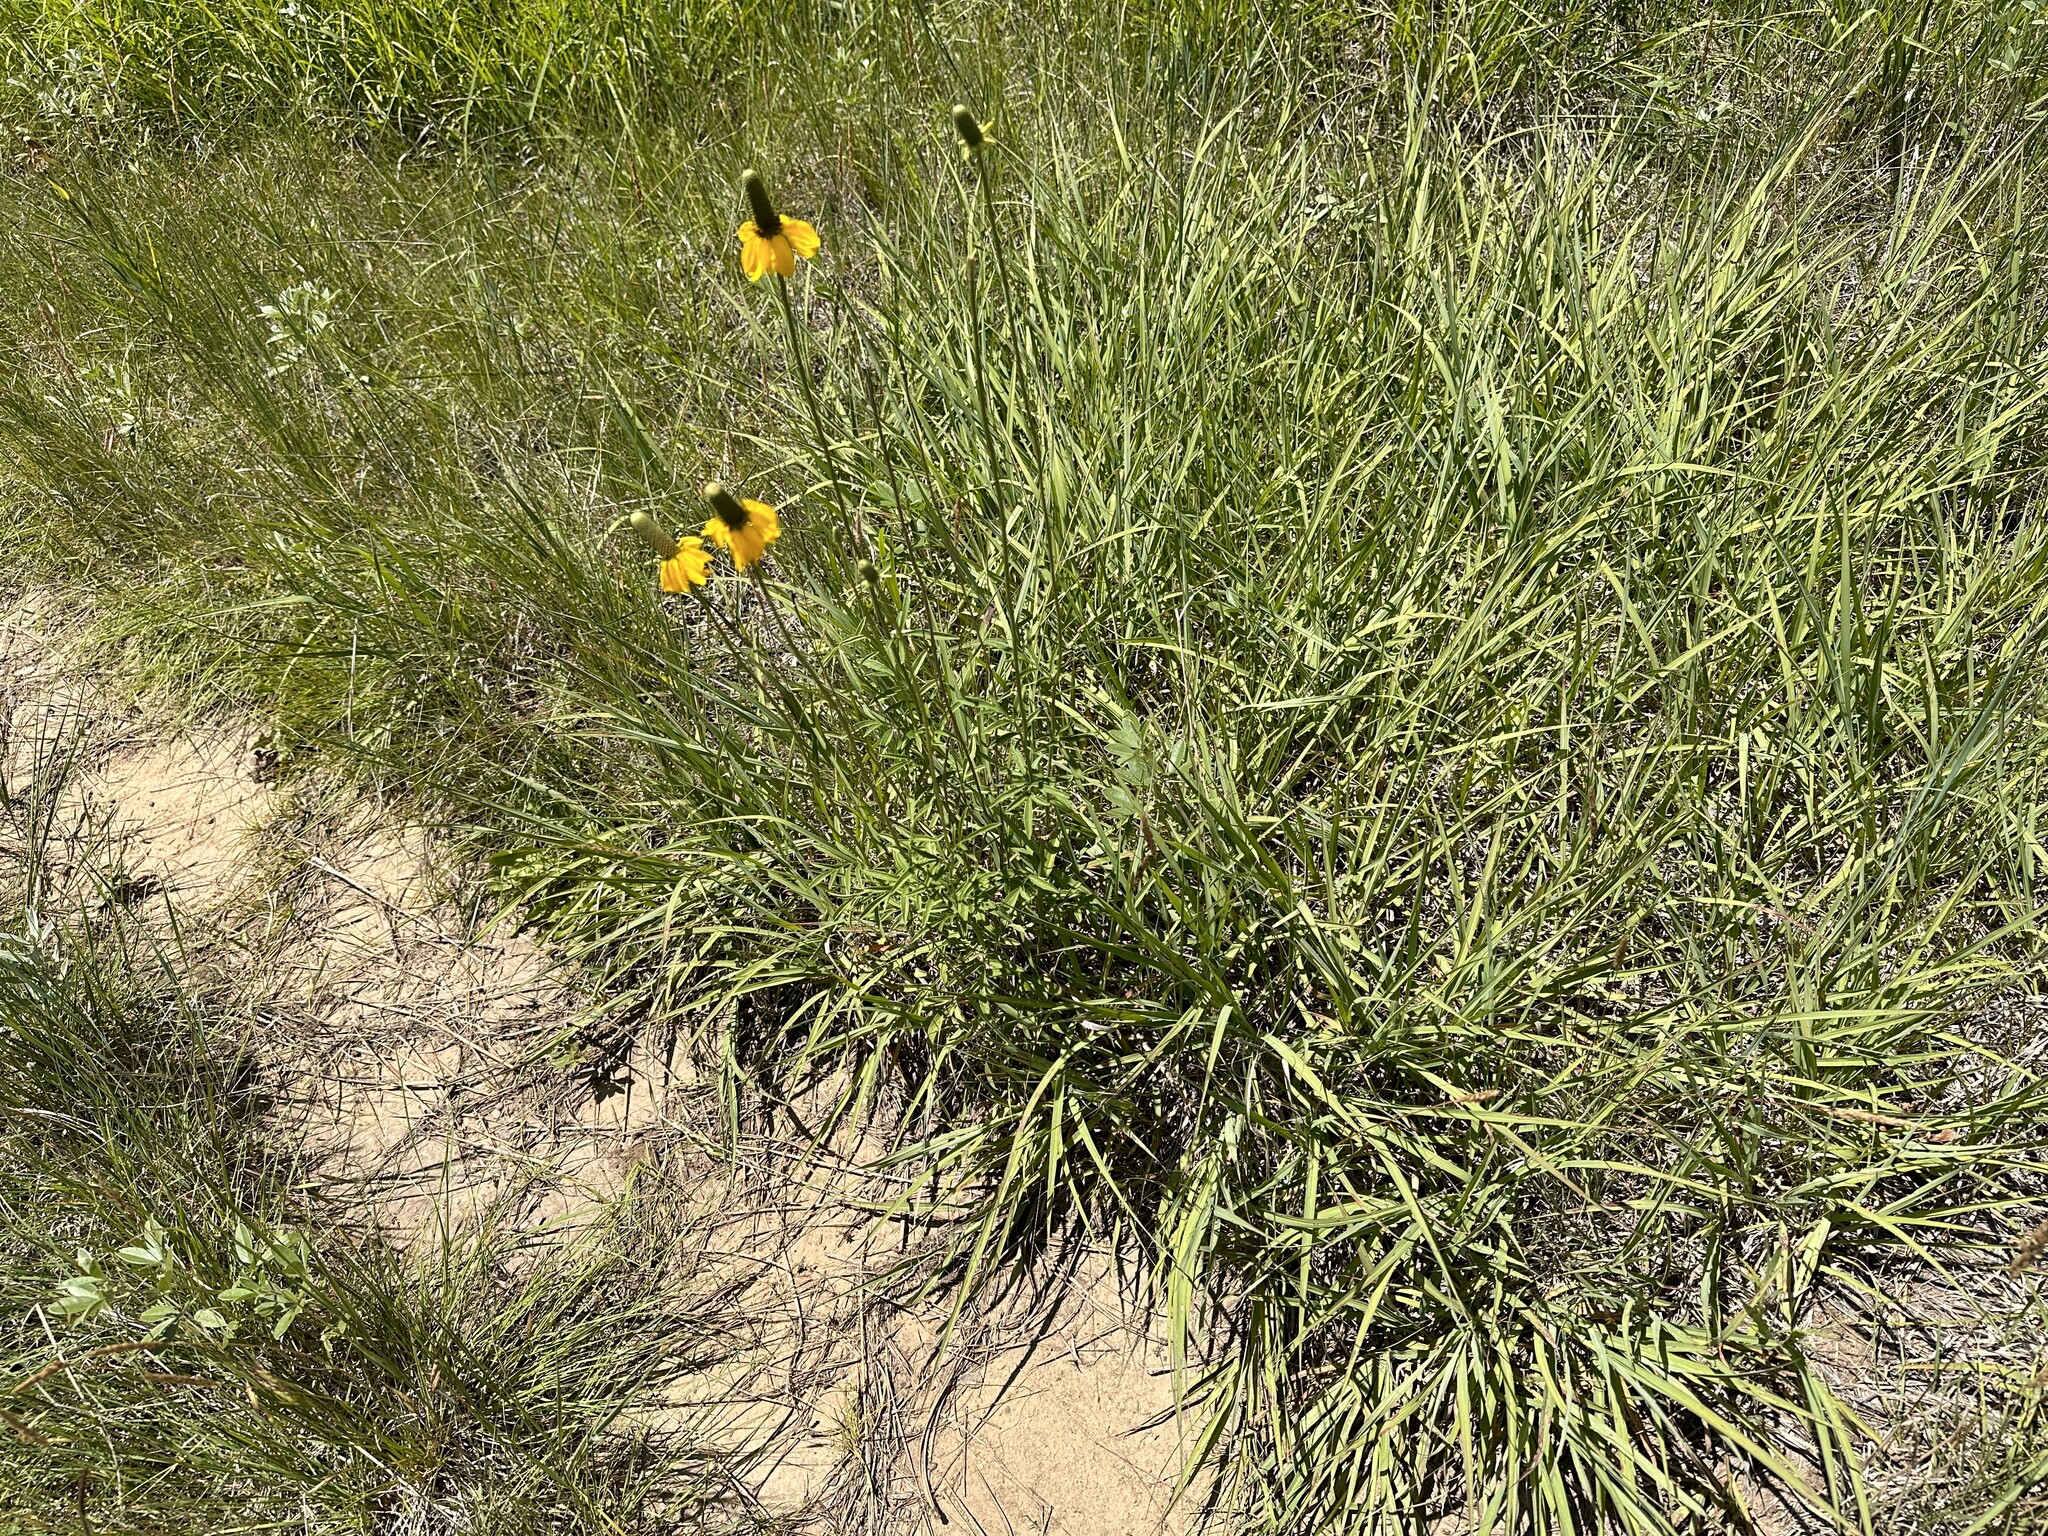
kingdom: Plantae
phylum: Tracheophyta
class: Magnoliopsida
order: Asterales
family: Asteraceae
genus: Ratibida
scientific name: Ratibida columnifera
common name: Prairie coneflower
